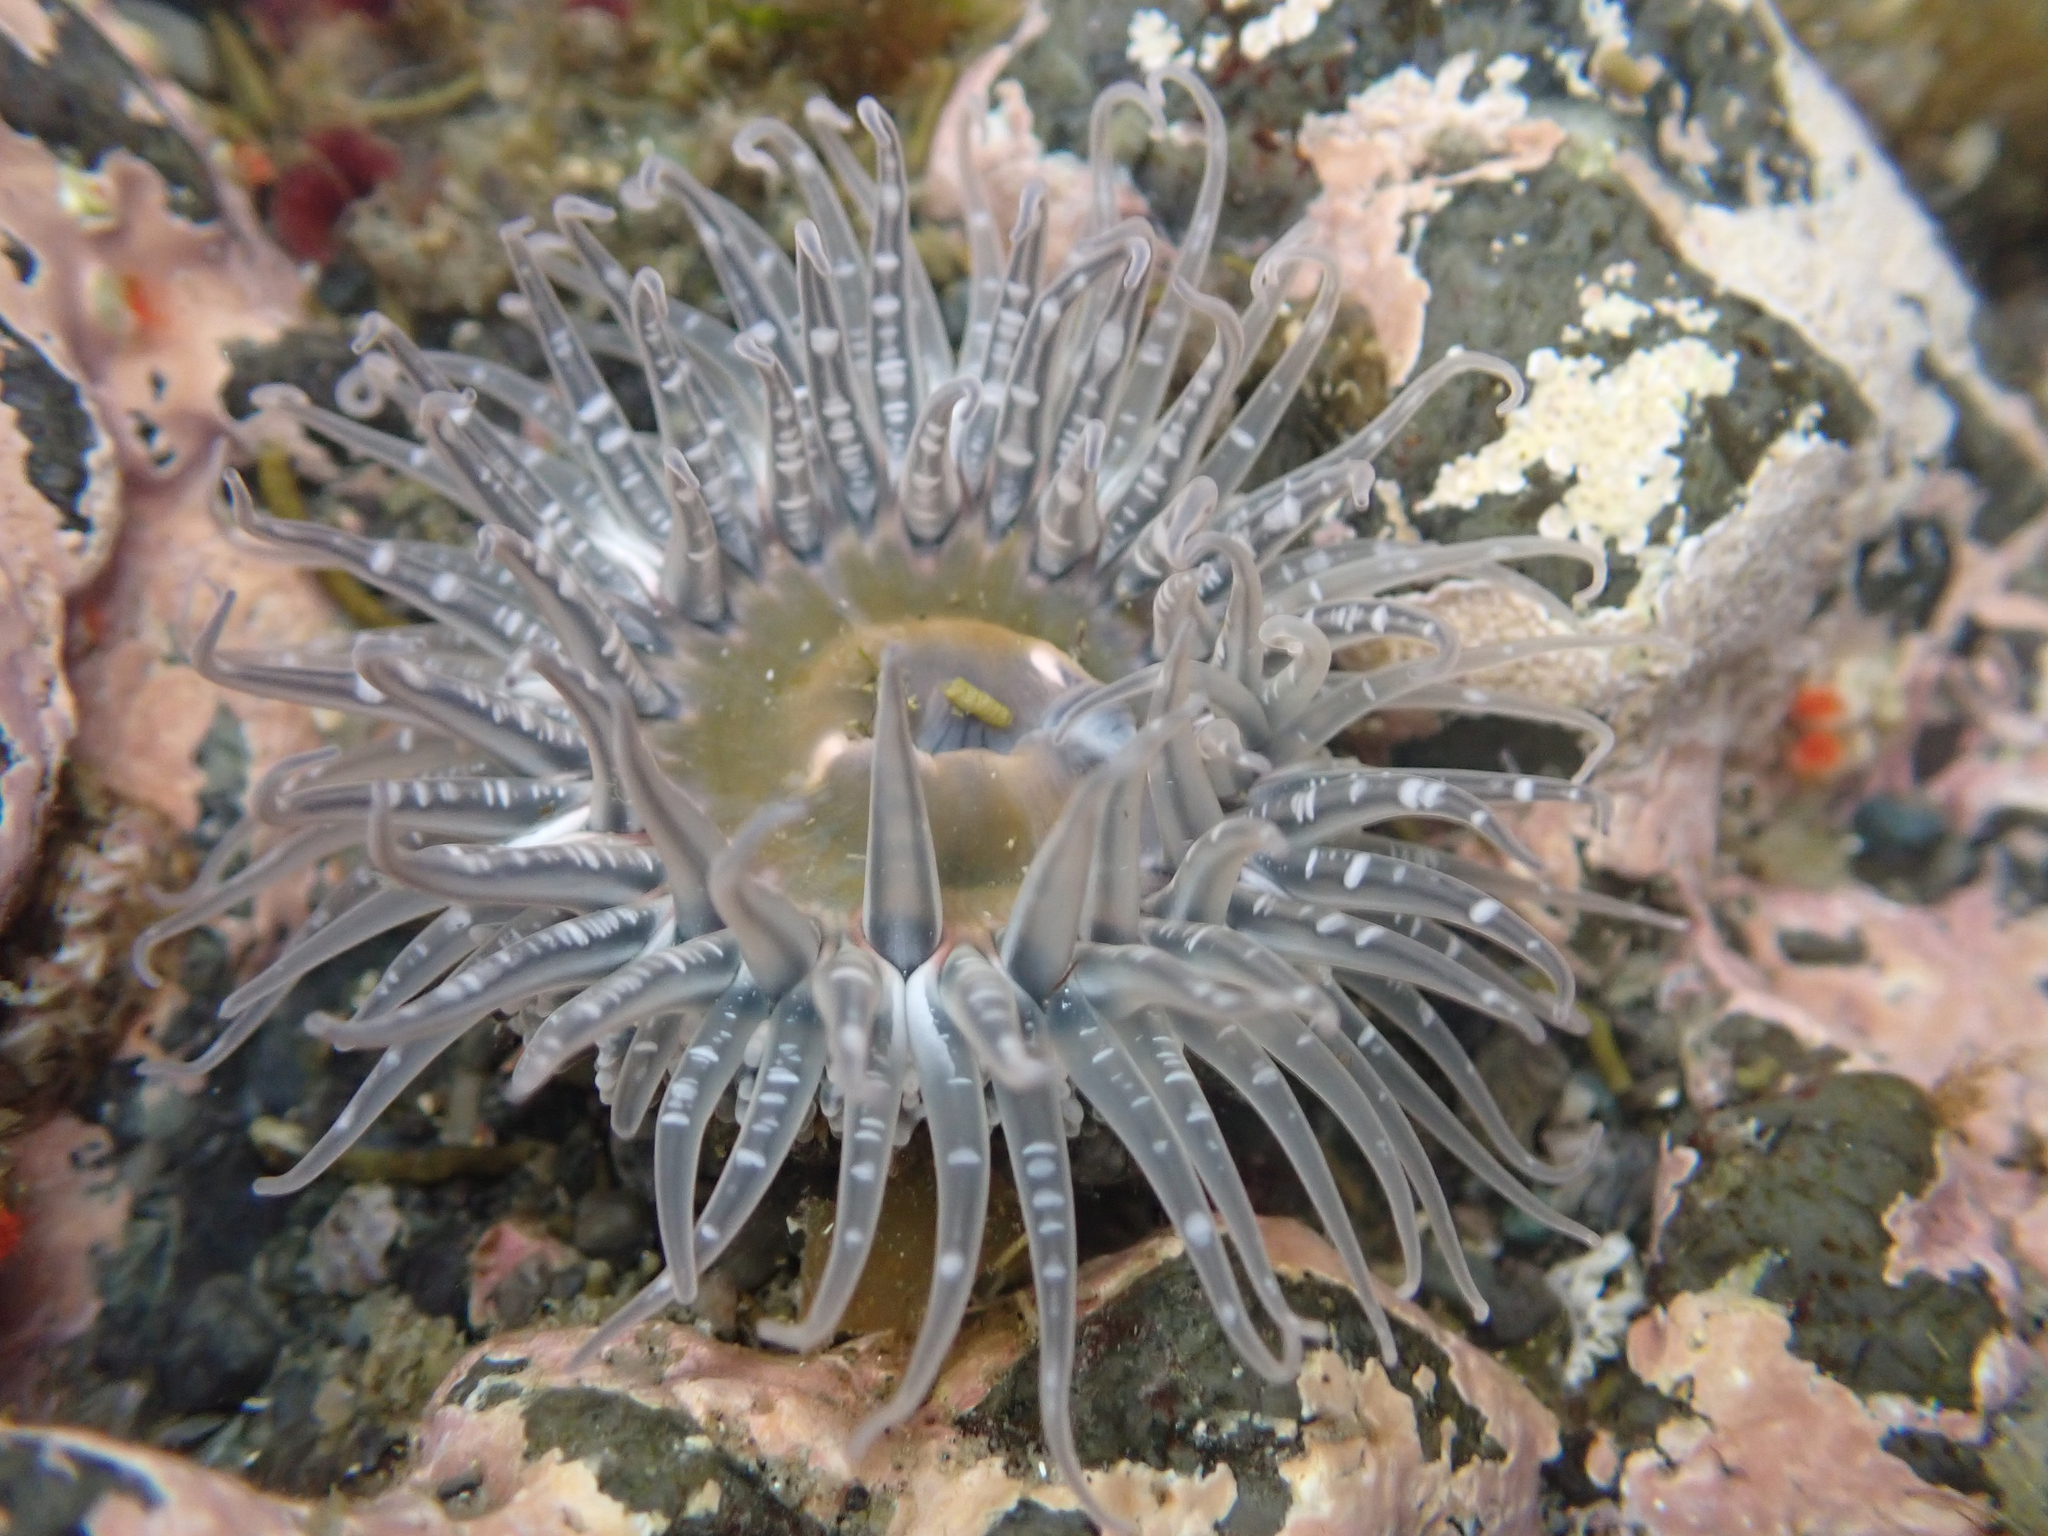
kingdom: Animalia
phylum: Cnidaria
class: Anthozoa
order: Actiniaria
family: Actiniidae
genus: Anthopleura
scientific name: Anthopleura artemisia
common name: Buried sea anemone
